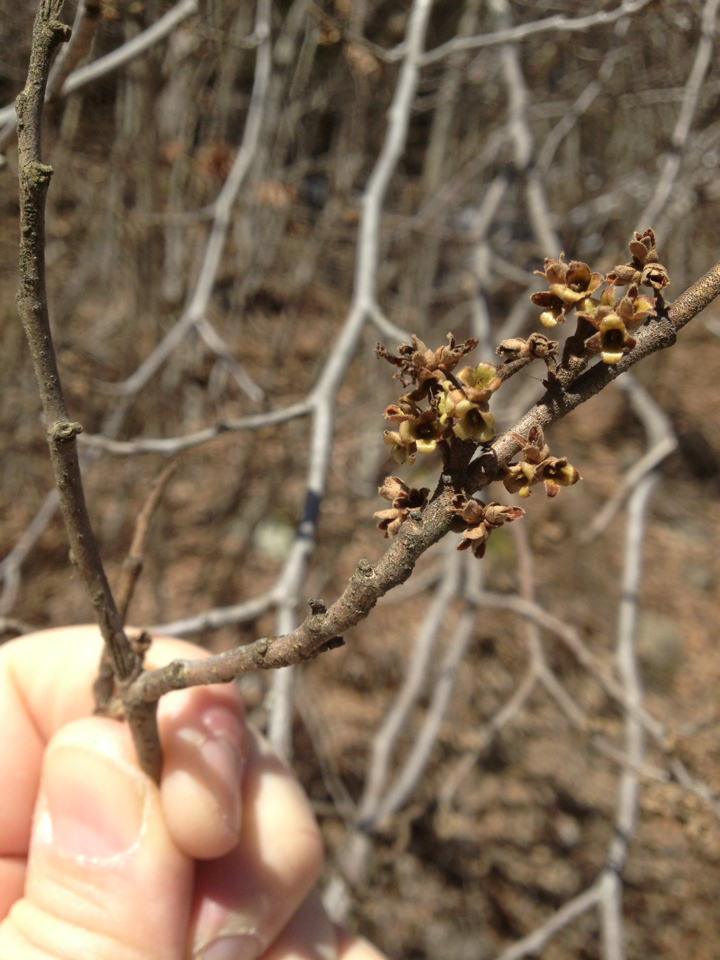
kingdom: Plantae
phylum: Tracheophyta
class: Magnoliopsida
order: Saxifragales
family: Hamamelidaceae
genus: Hamamelis
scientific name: Hamamelis virginiana
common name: Witch-hazel
